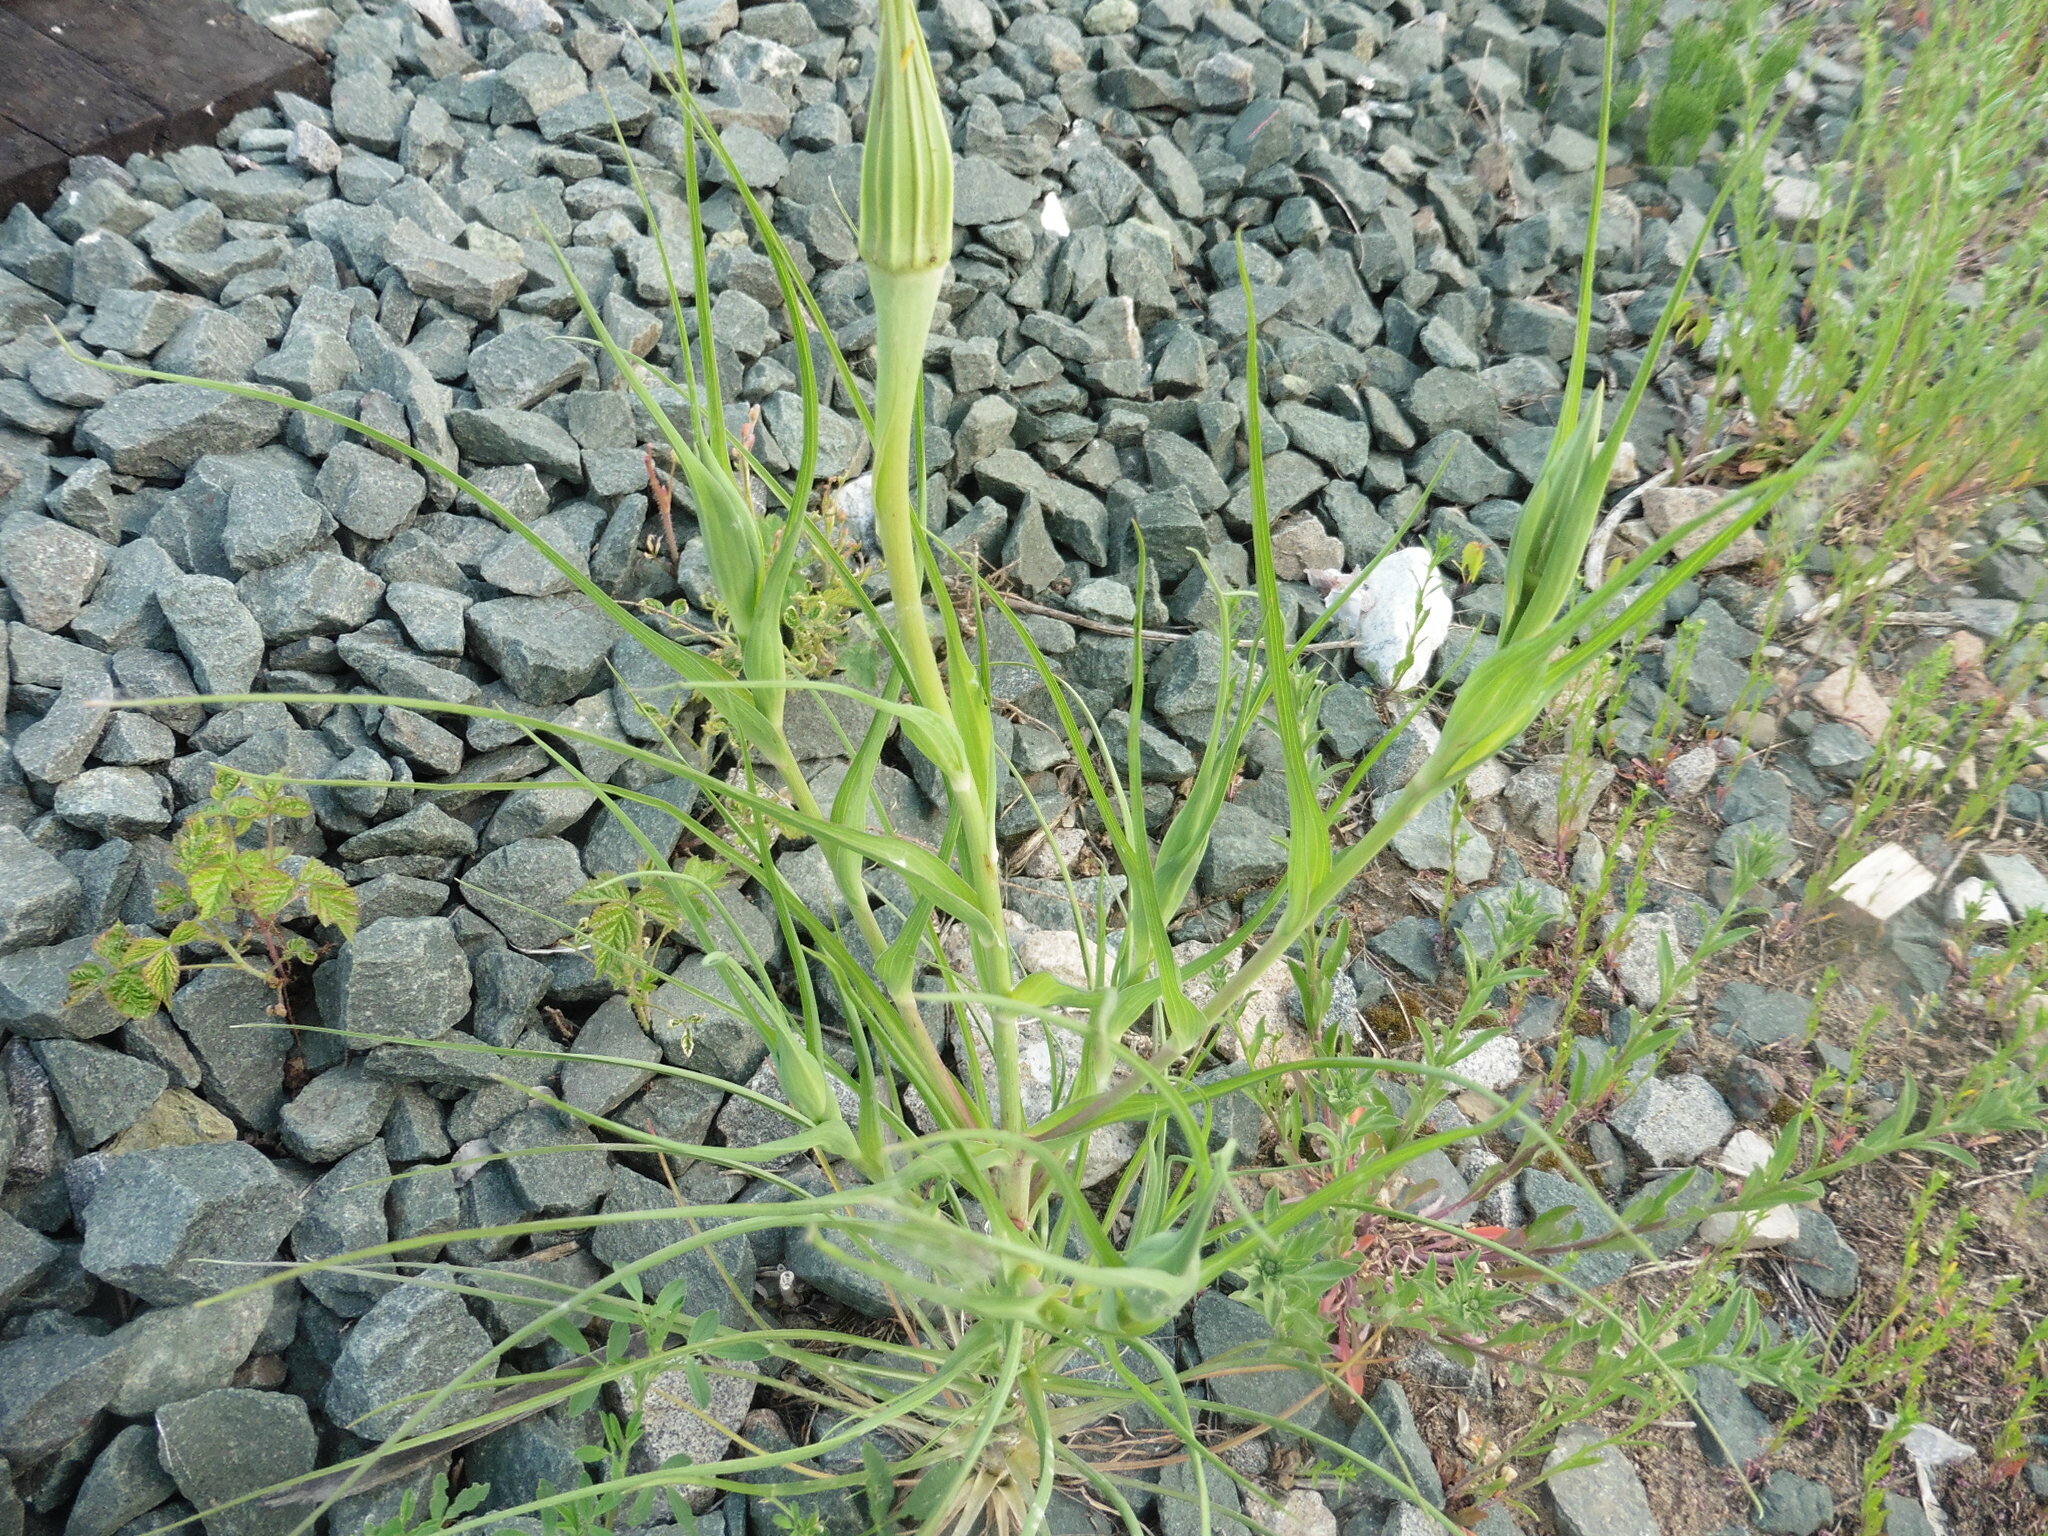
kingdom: Plantae
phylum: Tracheophyta
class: Magnoliopsida
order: Asterales
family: Asteraceae
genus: Tragopogon
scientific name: Tragopogon dubius
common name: Yellow salsify
